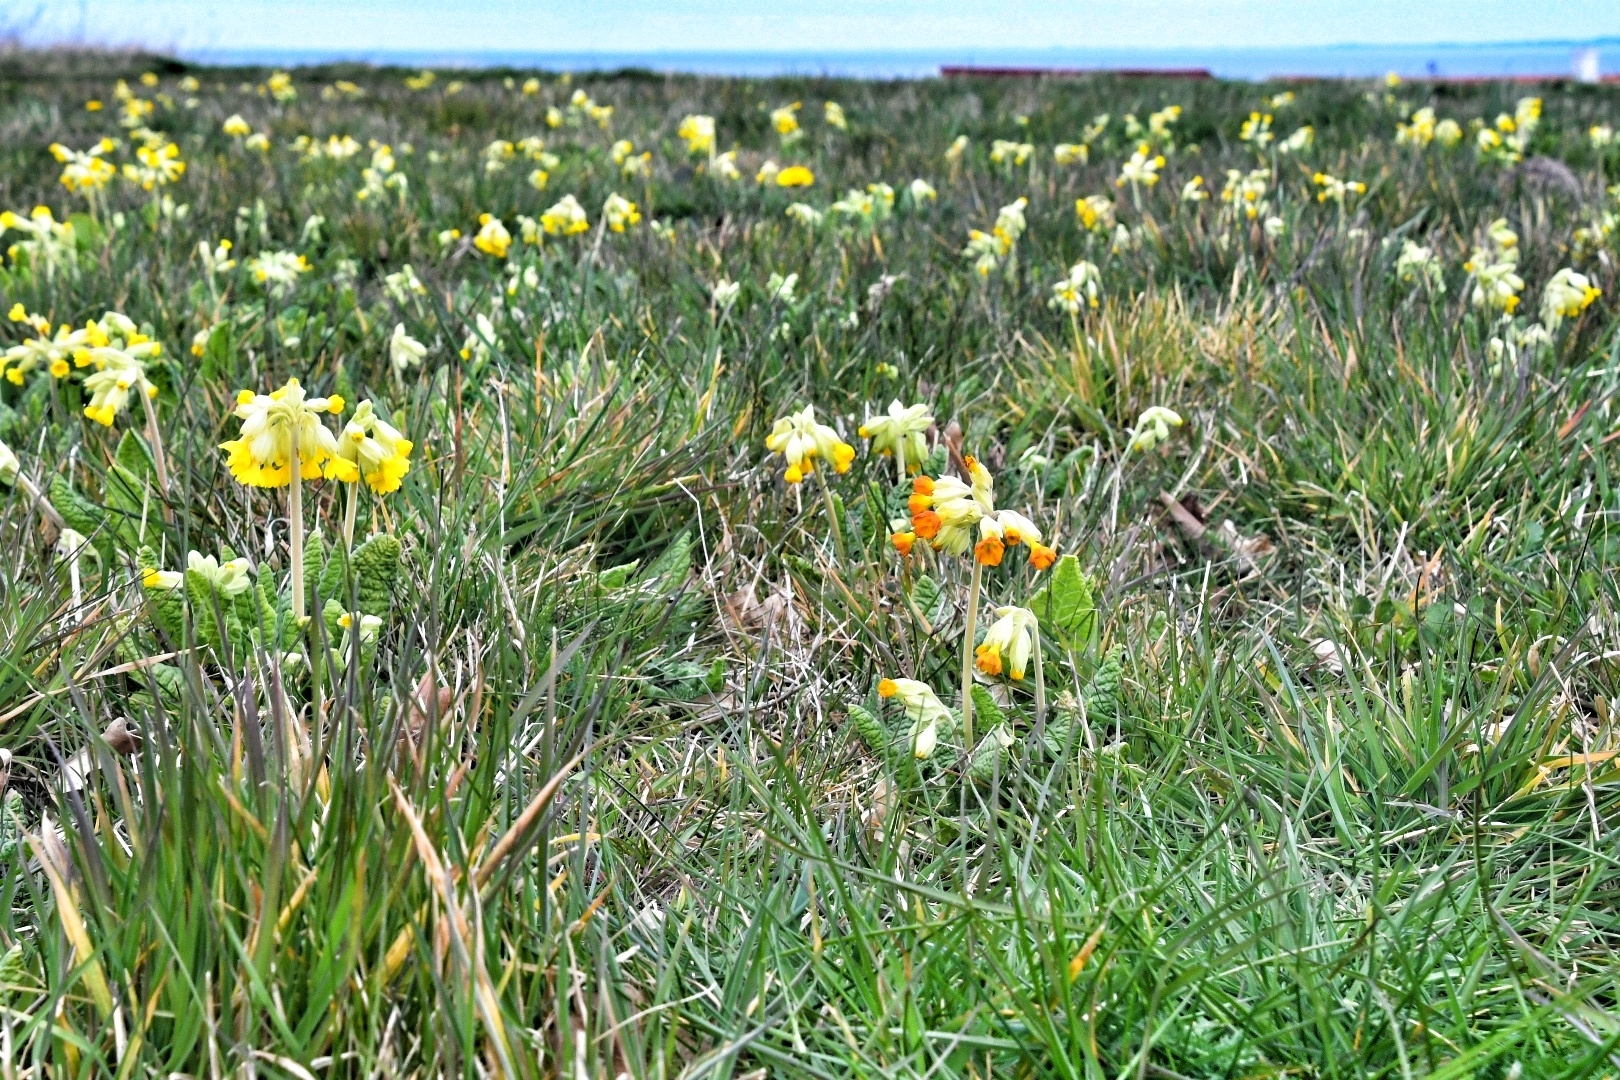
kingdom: Plantae
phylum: Tracheophyta
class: Magnoliopsida
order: Ericales
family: Primulaceae
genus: Primula
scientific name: Primula veris
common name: Cowslip
